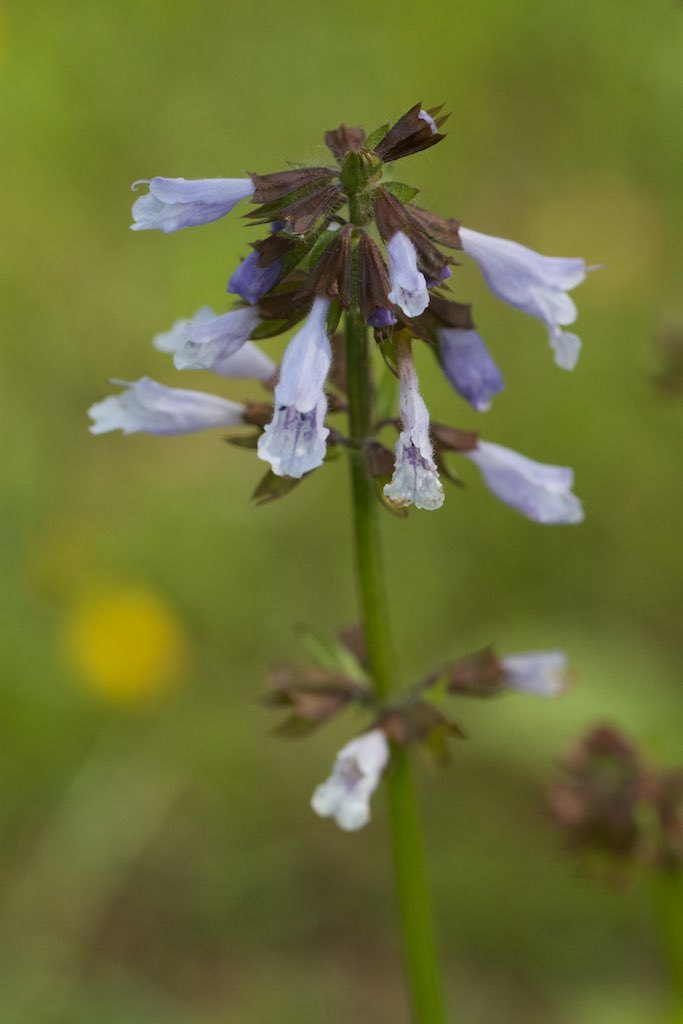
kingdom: Plantae
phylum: Tracheophyta
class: Magnoliopsida
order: Lamiales
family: Lamiaceae
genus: Salvia
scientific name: Salvia lyrata
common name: Cancerweed
